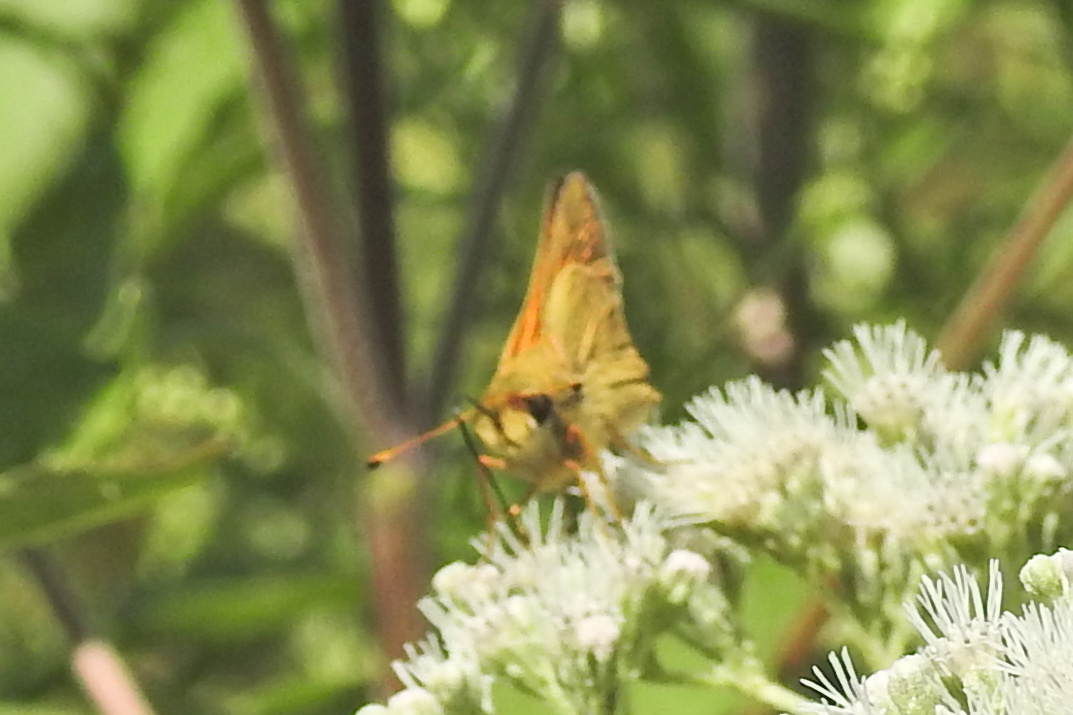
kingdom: Animalia
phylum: Arthropoda
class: Insecta
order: Lepidoptera
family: Hesperiidae
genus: Atalopedes
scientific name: Atalopedes
